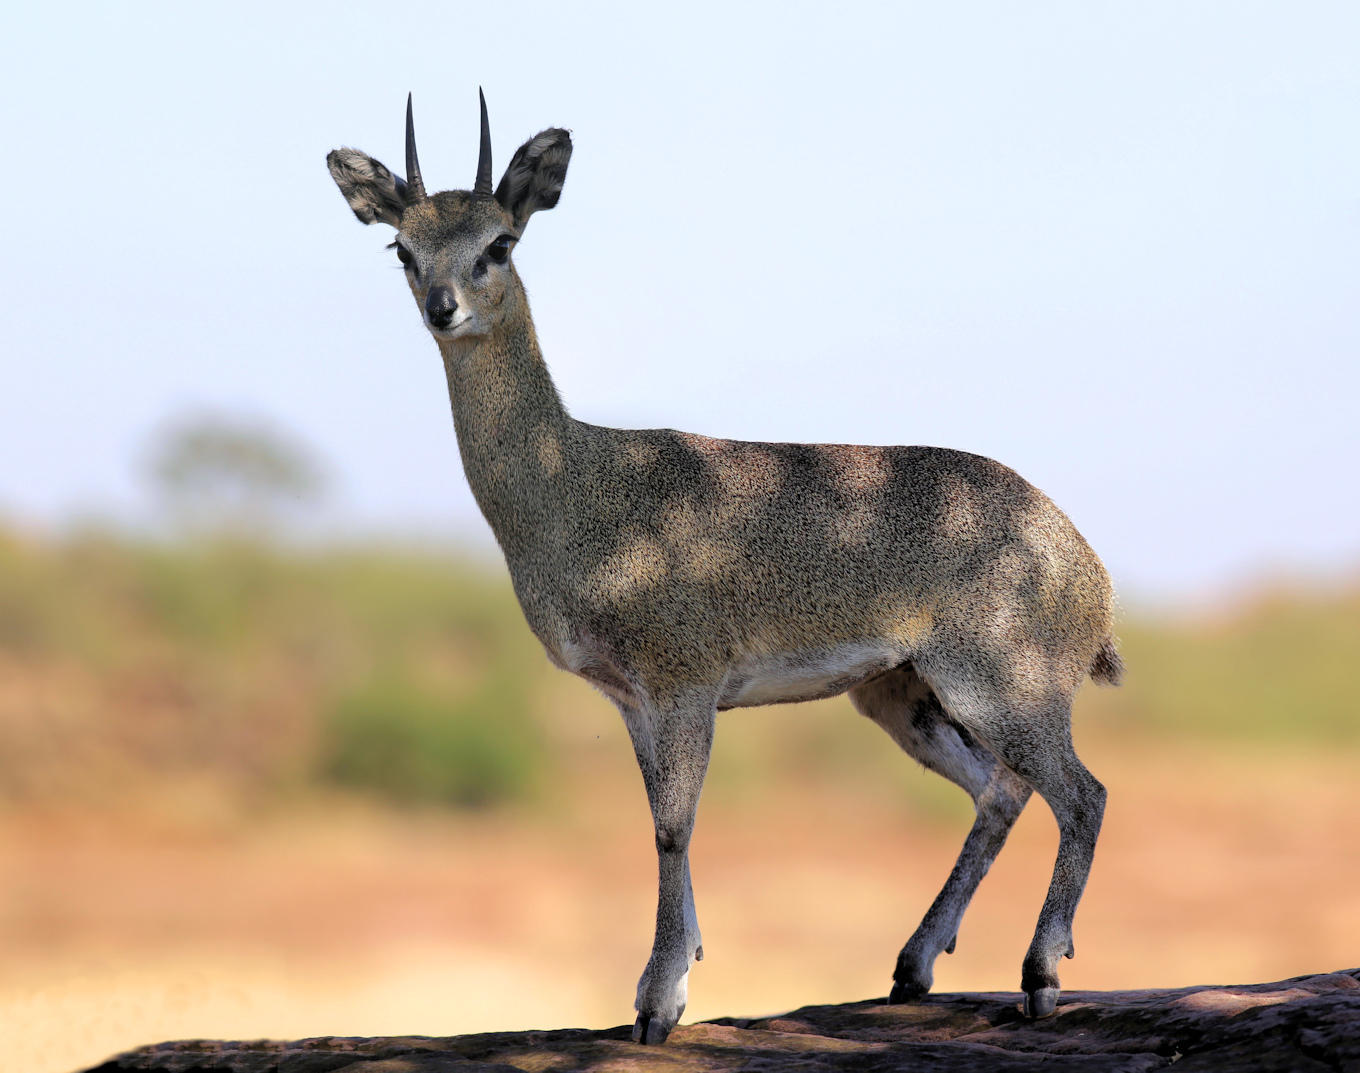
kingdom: Animalia
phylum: Chordata
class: Mammalia
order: Artiodactyla
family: Bovidae
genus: Oreotragus
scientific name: Oreotragus oreotragus
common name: Klipspringer
